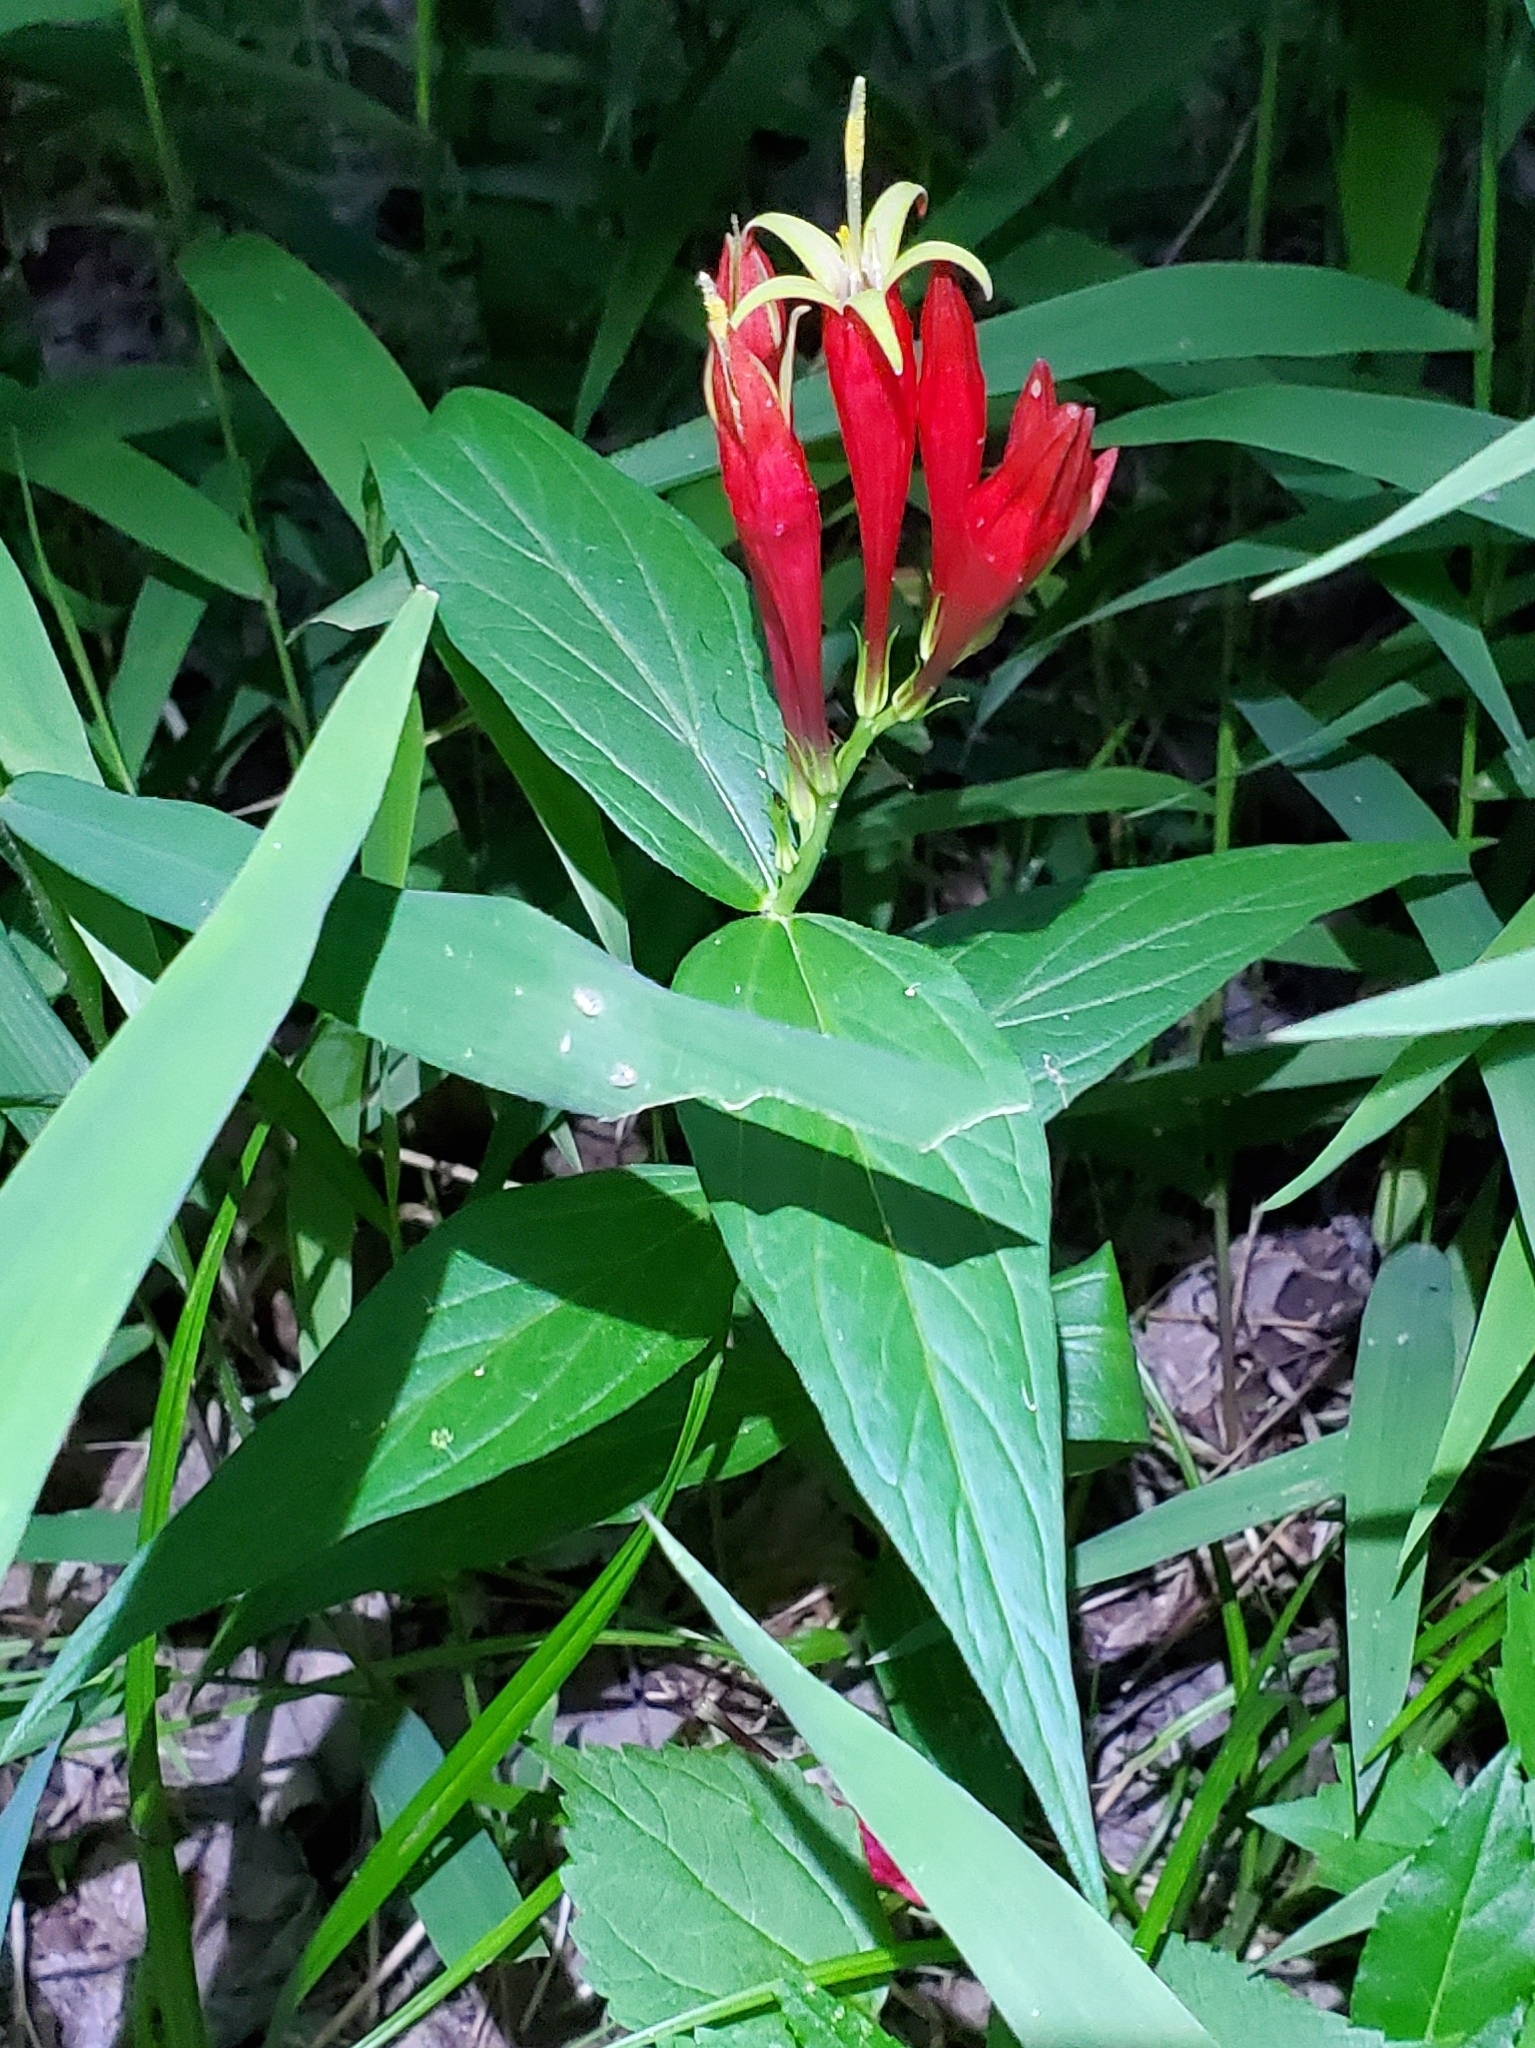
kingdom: Plantae
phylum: Tracheophyta
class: Magnoliopsida
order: Gentianales
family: Loganiaceae
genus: Spigelia
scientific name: Spigelia marilandica
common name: Indian-pink
